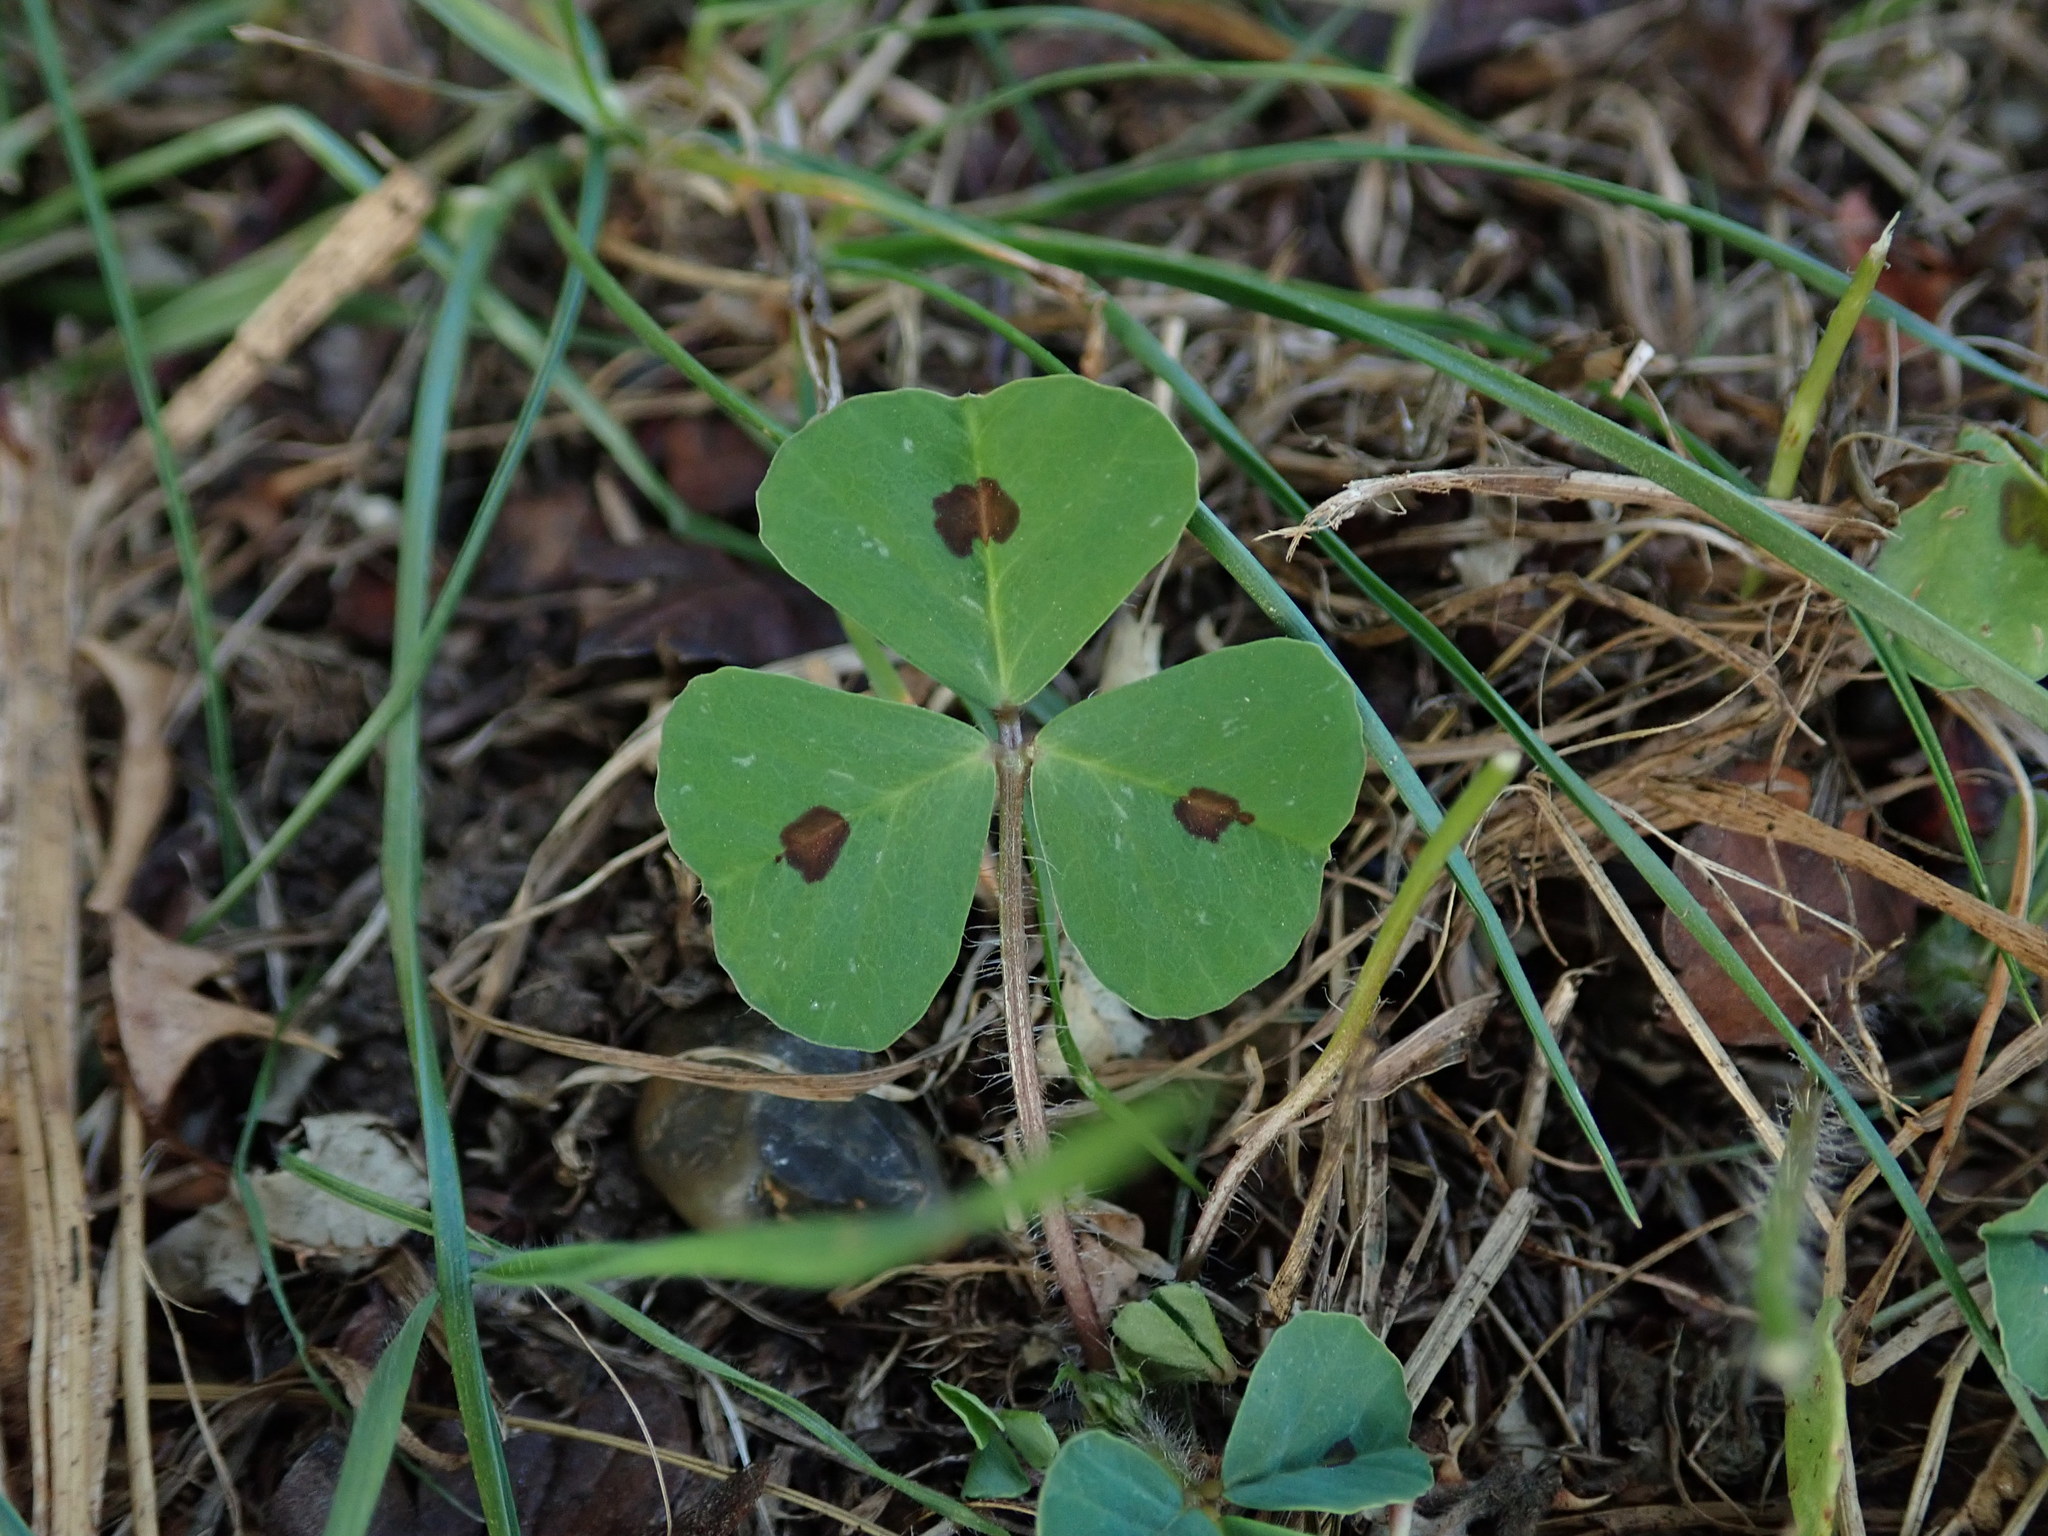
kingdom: Plantae
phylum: Tracheophyta
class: Magnoliopsida
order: Fabales
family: Fabaceae
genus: Medicago
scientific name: Medicago arabica
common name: Spotted medick
